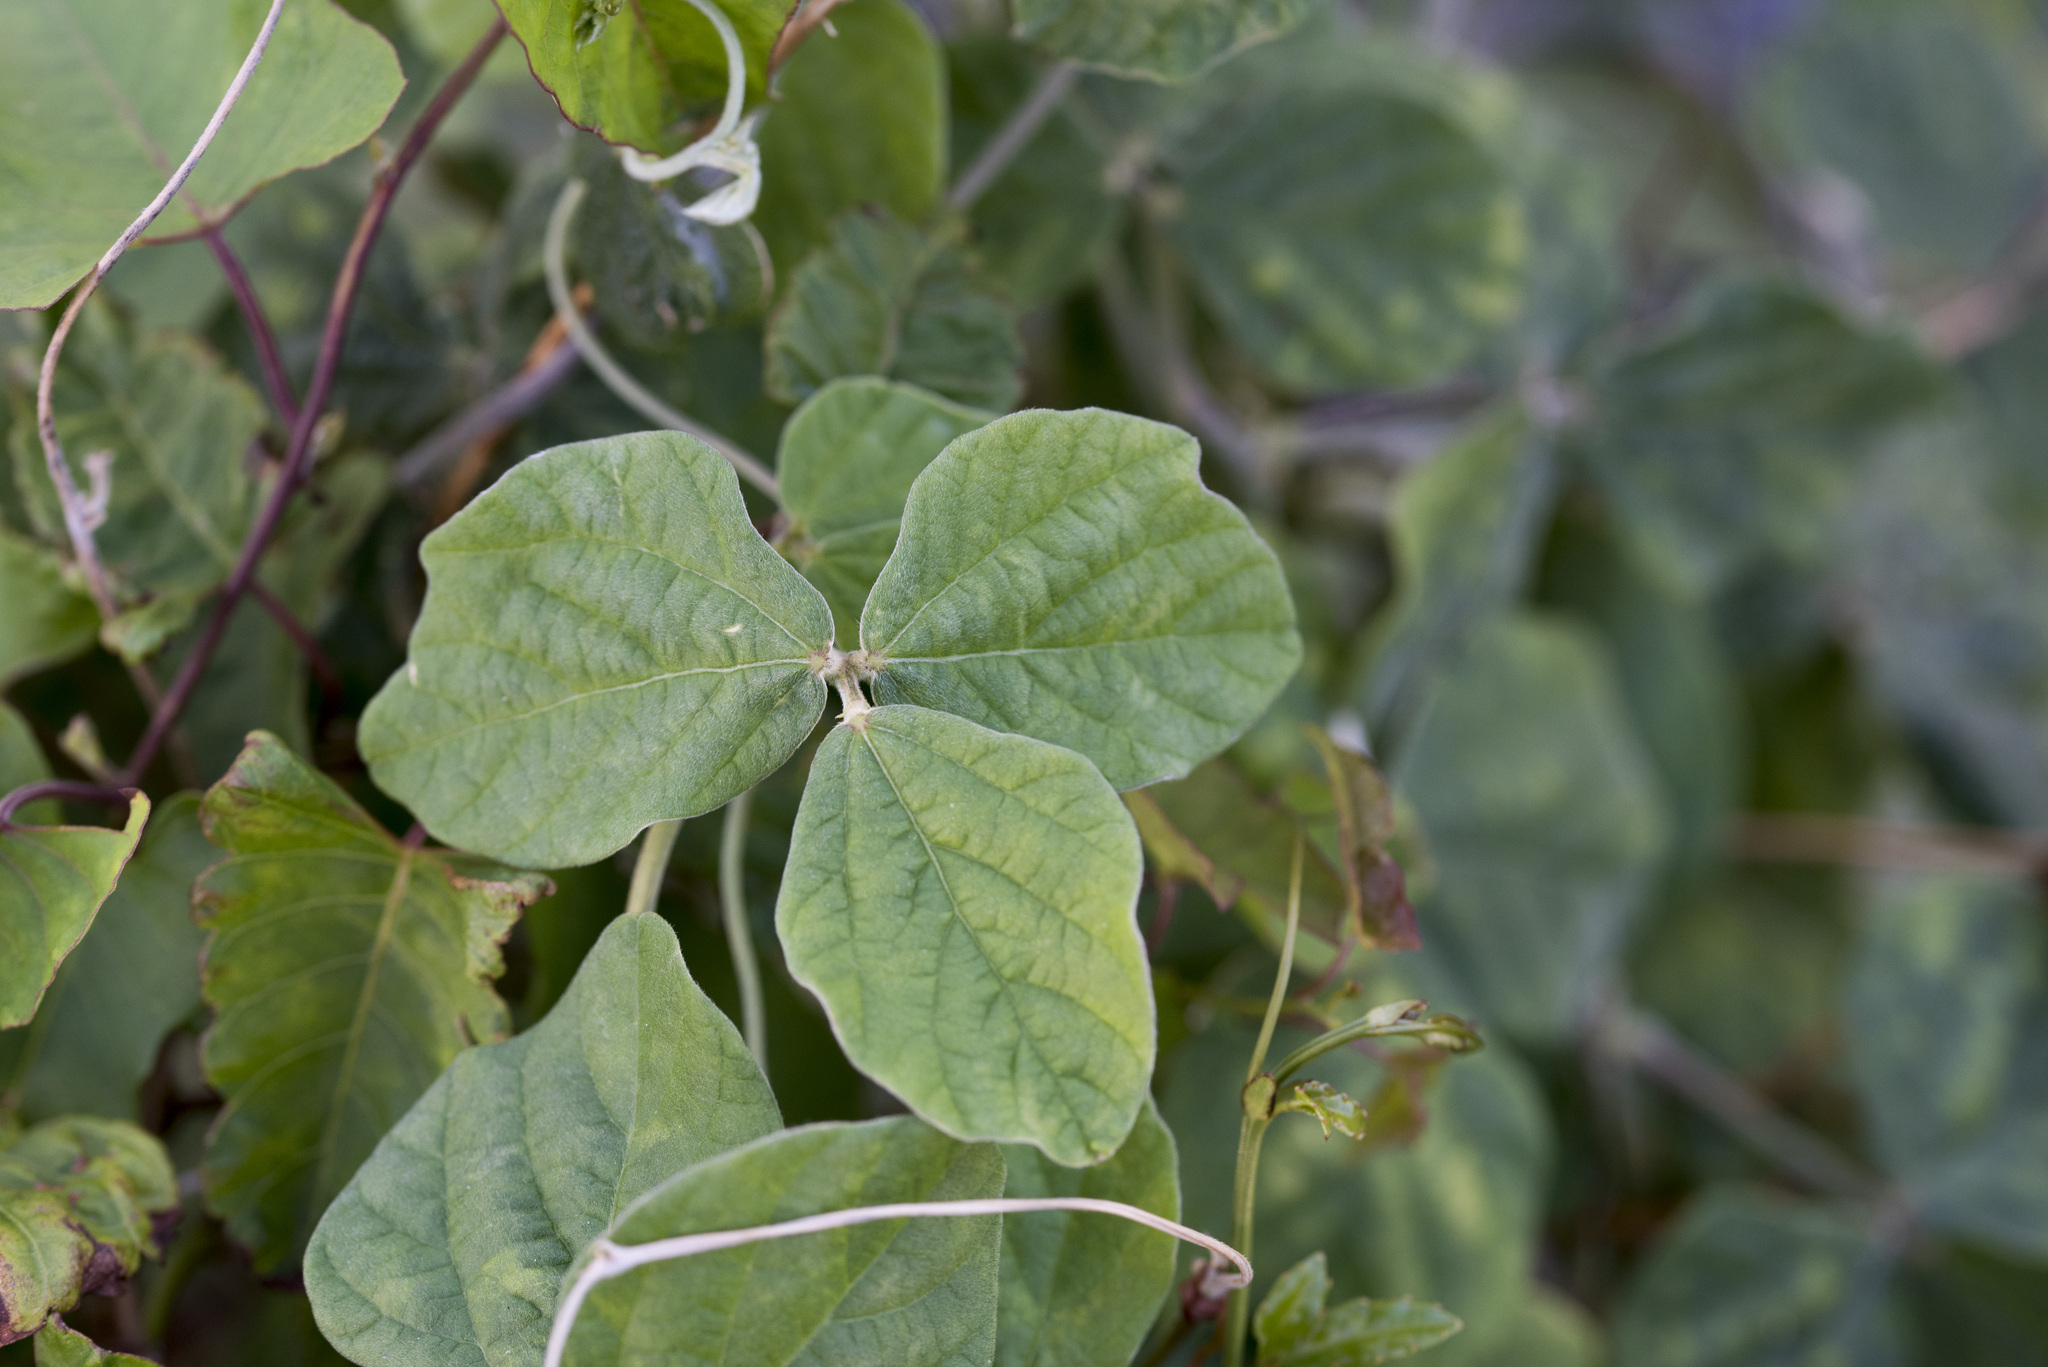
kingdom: Plantae
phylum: Tracheophyta
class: Magnoliopsida
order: Fabales
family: Fabaceae
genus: Macroptilium
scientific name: Macroptilium atropurpureum
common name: Purple bushbean
